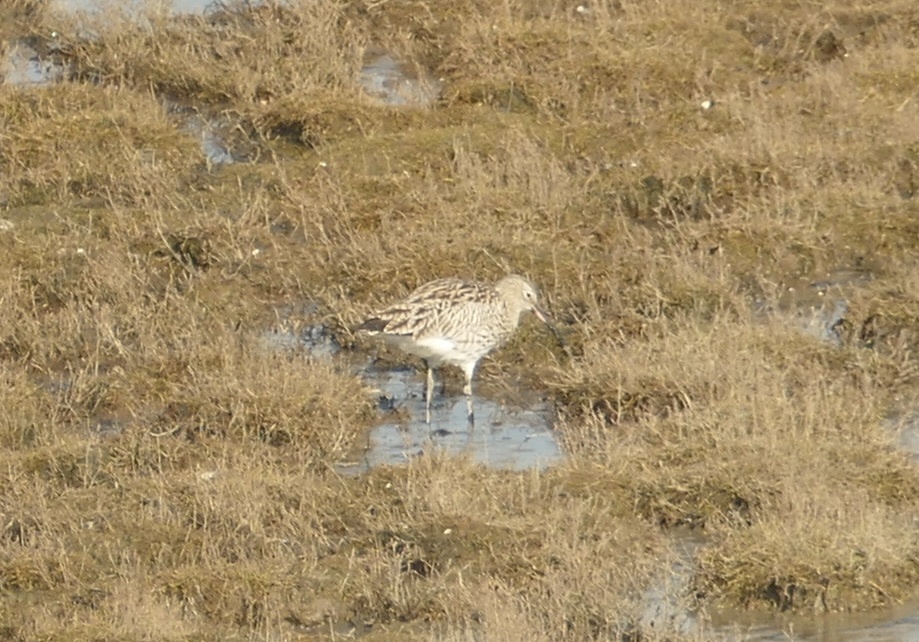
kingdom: Animalia
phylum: Chordata
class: Aves
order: Charadriiformes
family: Scolopacidae
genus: Numenius
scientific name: Numenius arquata
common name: Eurasian curlew
